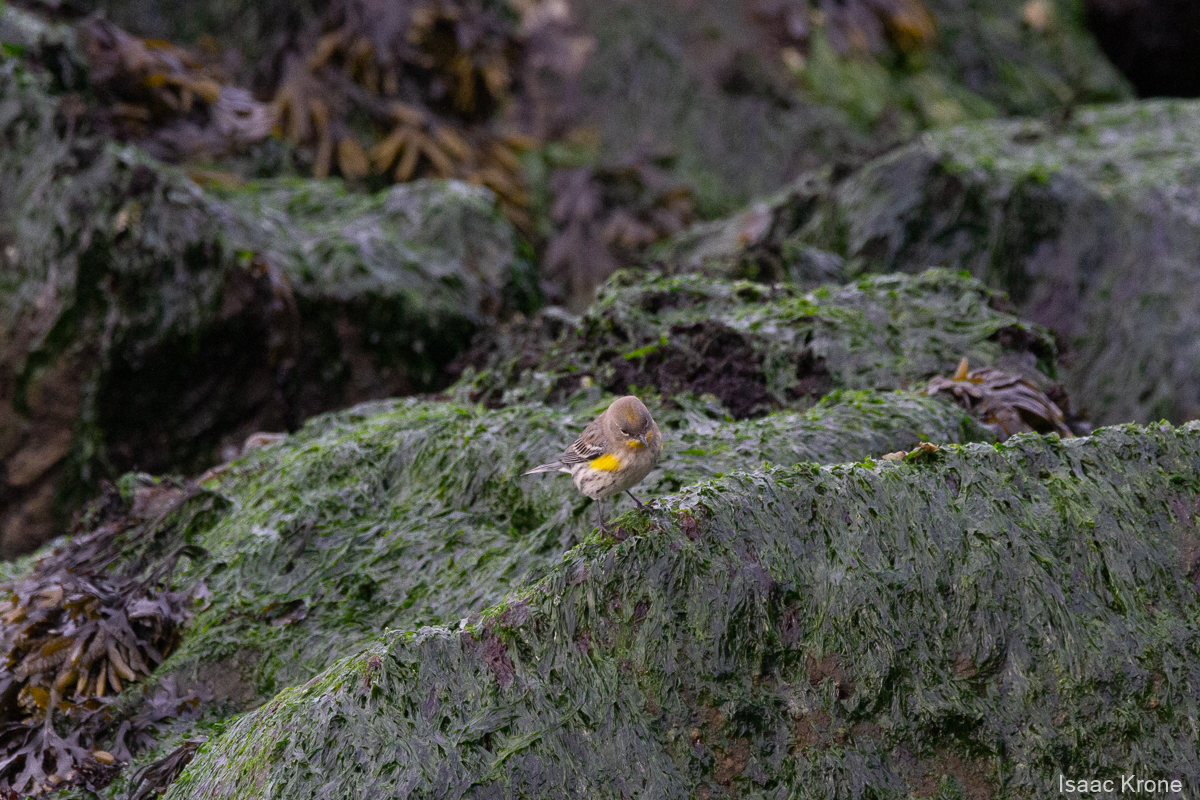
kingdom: Animalia
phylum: Chordata
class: Aves
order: Passeriformes
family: Parulidae
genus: Setophaga
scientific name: Setophaga coronata
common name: Myrtle warbler
